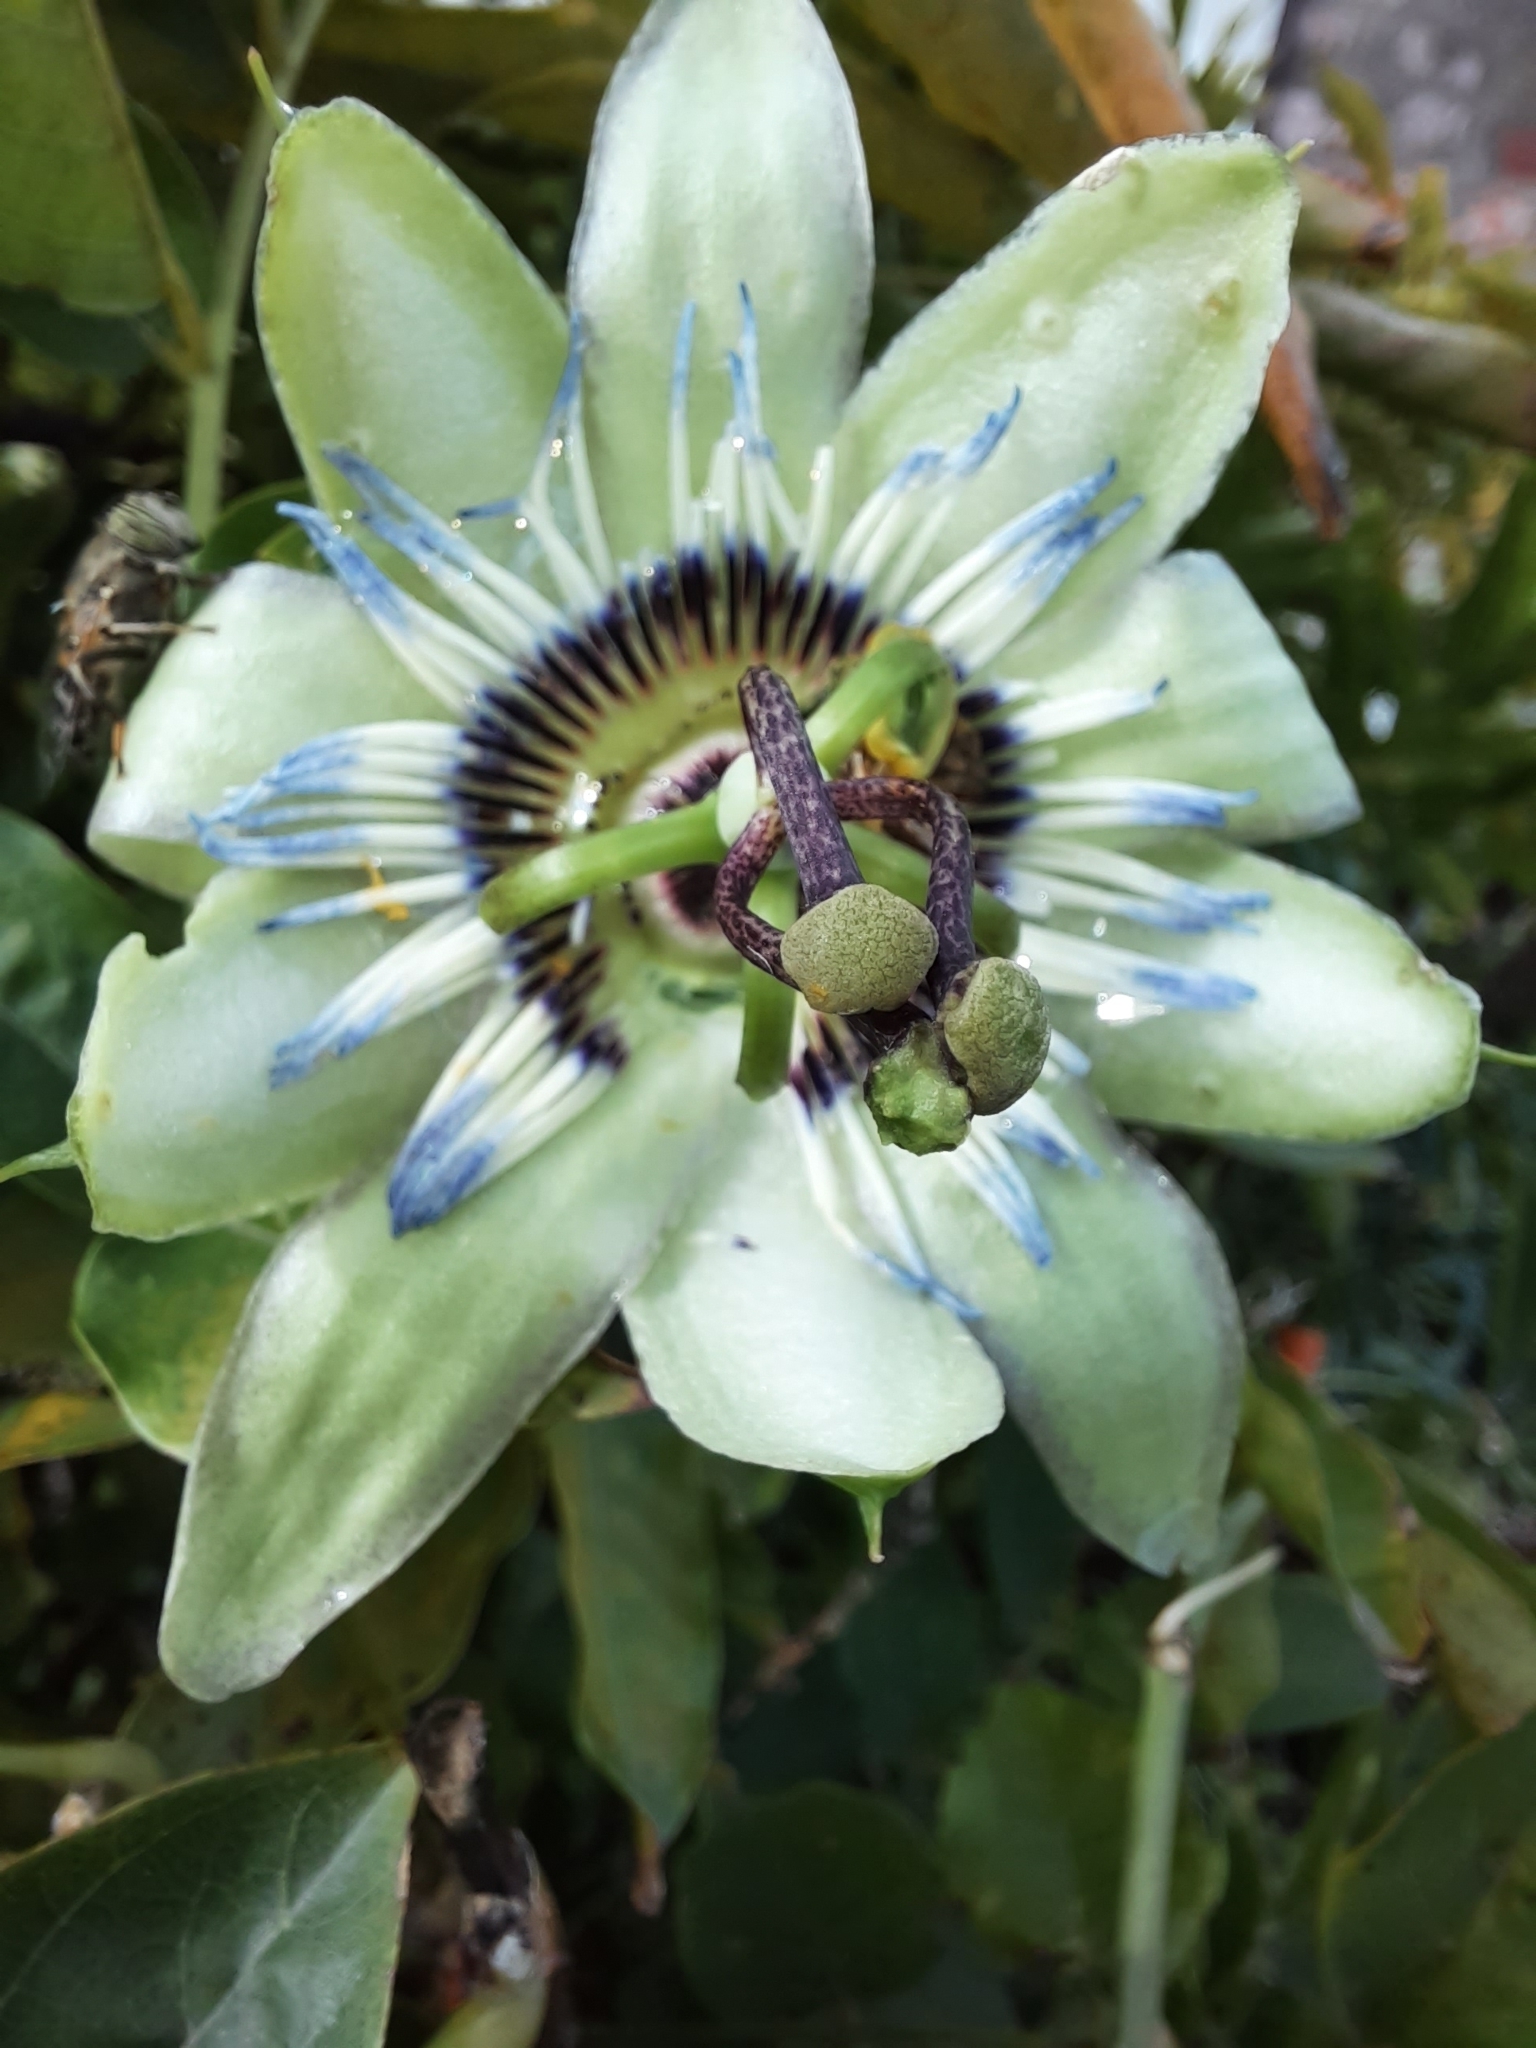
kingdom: Plantae
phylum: Tracheophyta
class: Magnoliopsida
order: Malpighiales
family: Passifloraceae
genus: Passiflora
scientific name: Passiflora caerulea
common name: Blue passionflower
